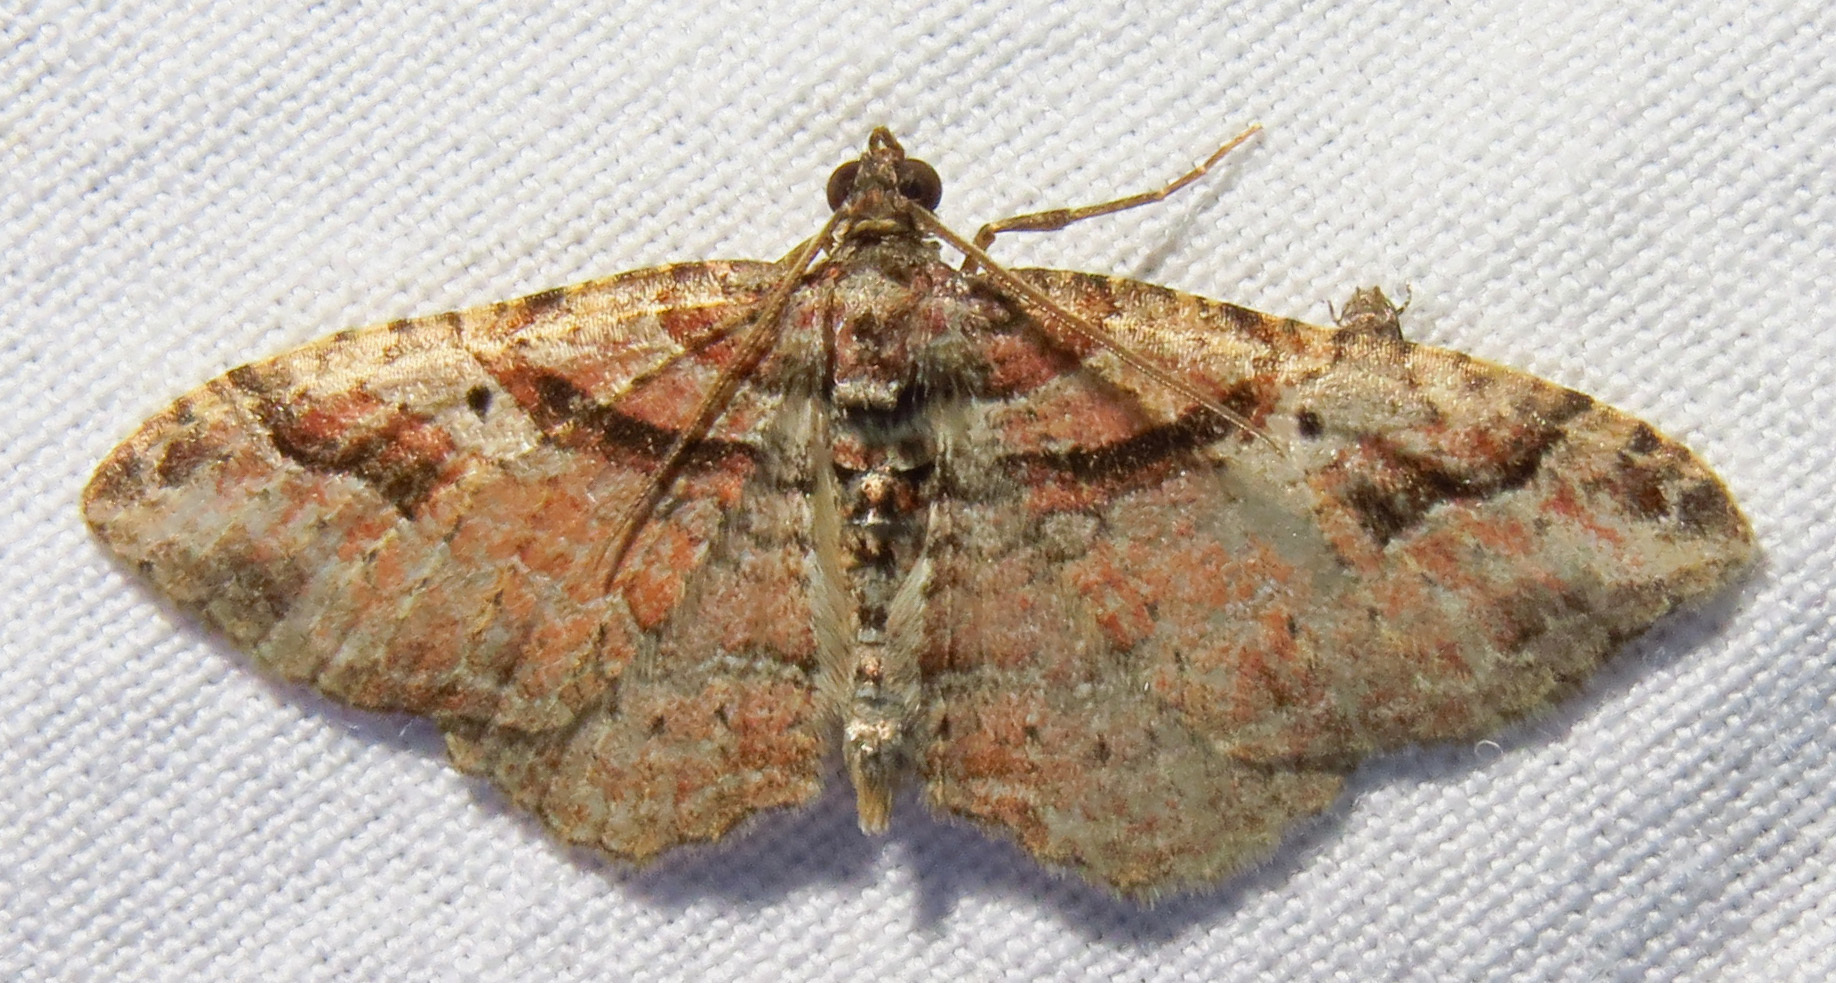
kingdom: Animalia
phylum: Arthropoda
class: Insecta
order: Lepidoptera
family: Geometridae
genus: Costaconvexa
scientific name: Costaconvexa centrostrigaria
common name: Bent-line carpet
